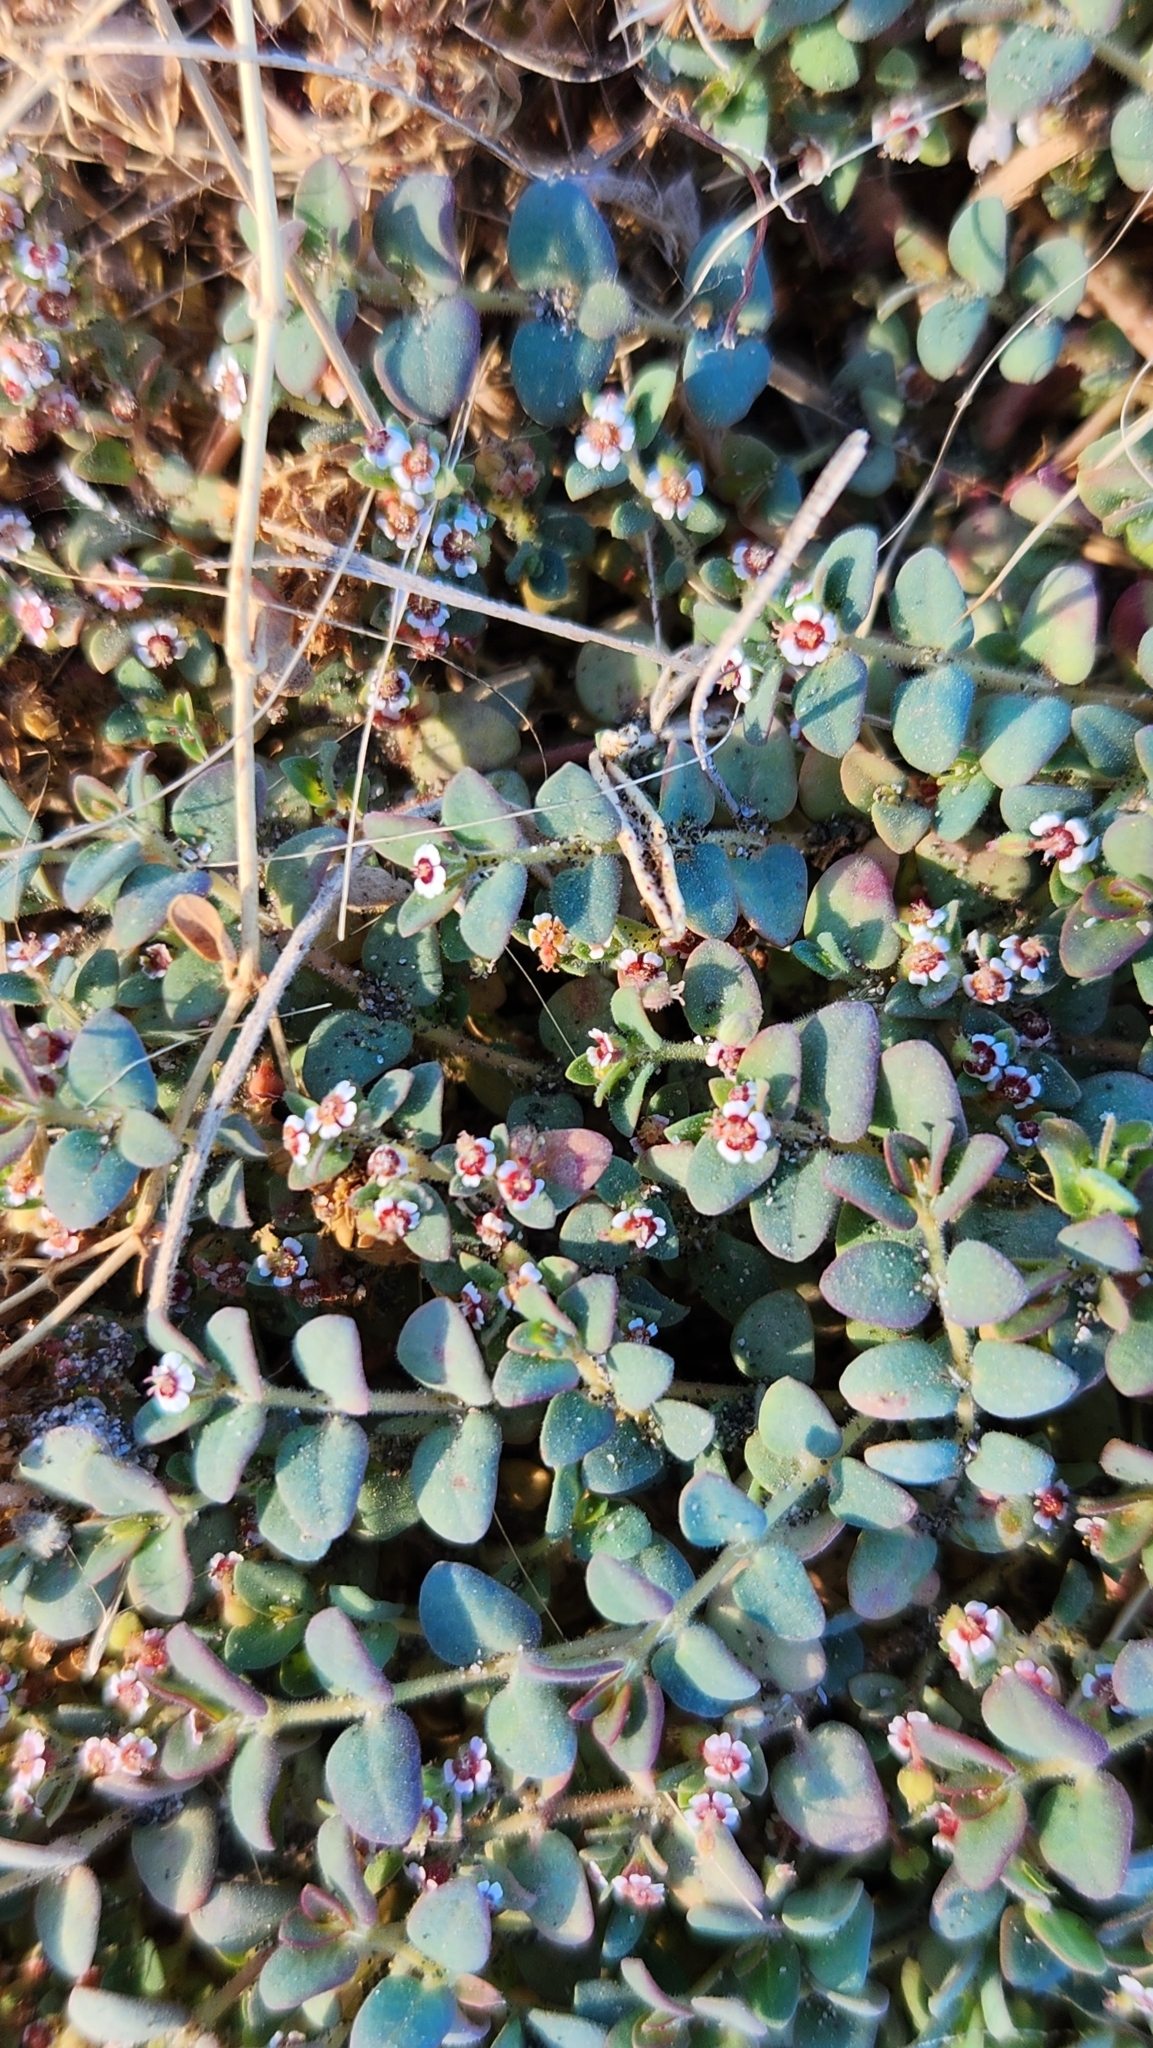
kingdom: Plantae
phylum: Tracheophyta
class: Magnoliopsida
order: Malpighiales
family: Euphorbiaceae
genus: Euphorbia
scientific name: Euphorbia polycarpa
